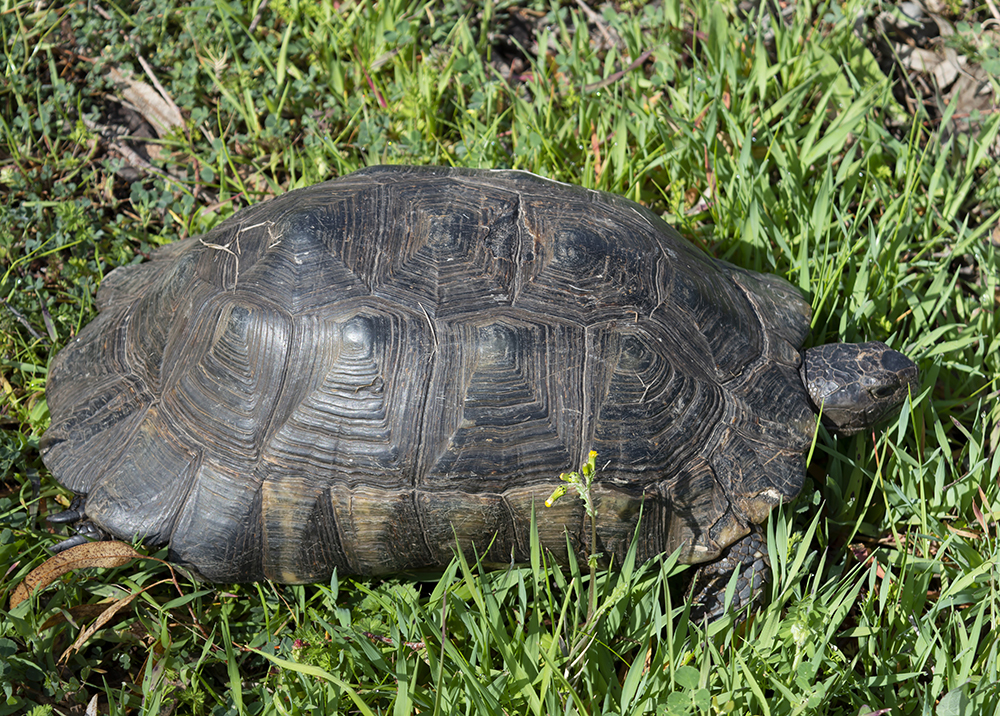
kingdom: Animalia
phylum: Chordata
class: Testudines
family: Testudinidae
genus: Testudo
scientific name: Testudo marginata
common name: Marginated tortoise
